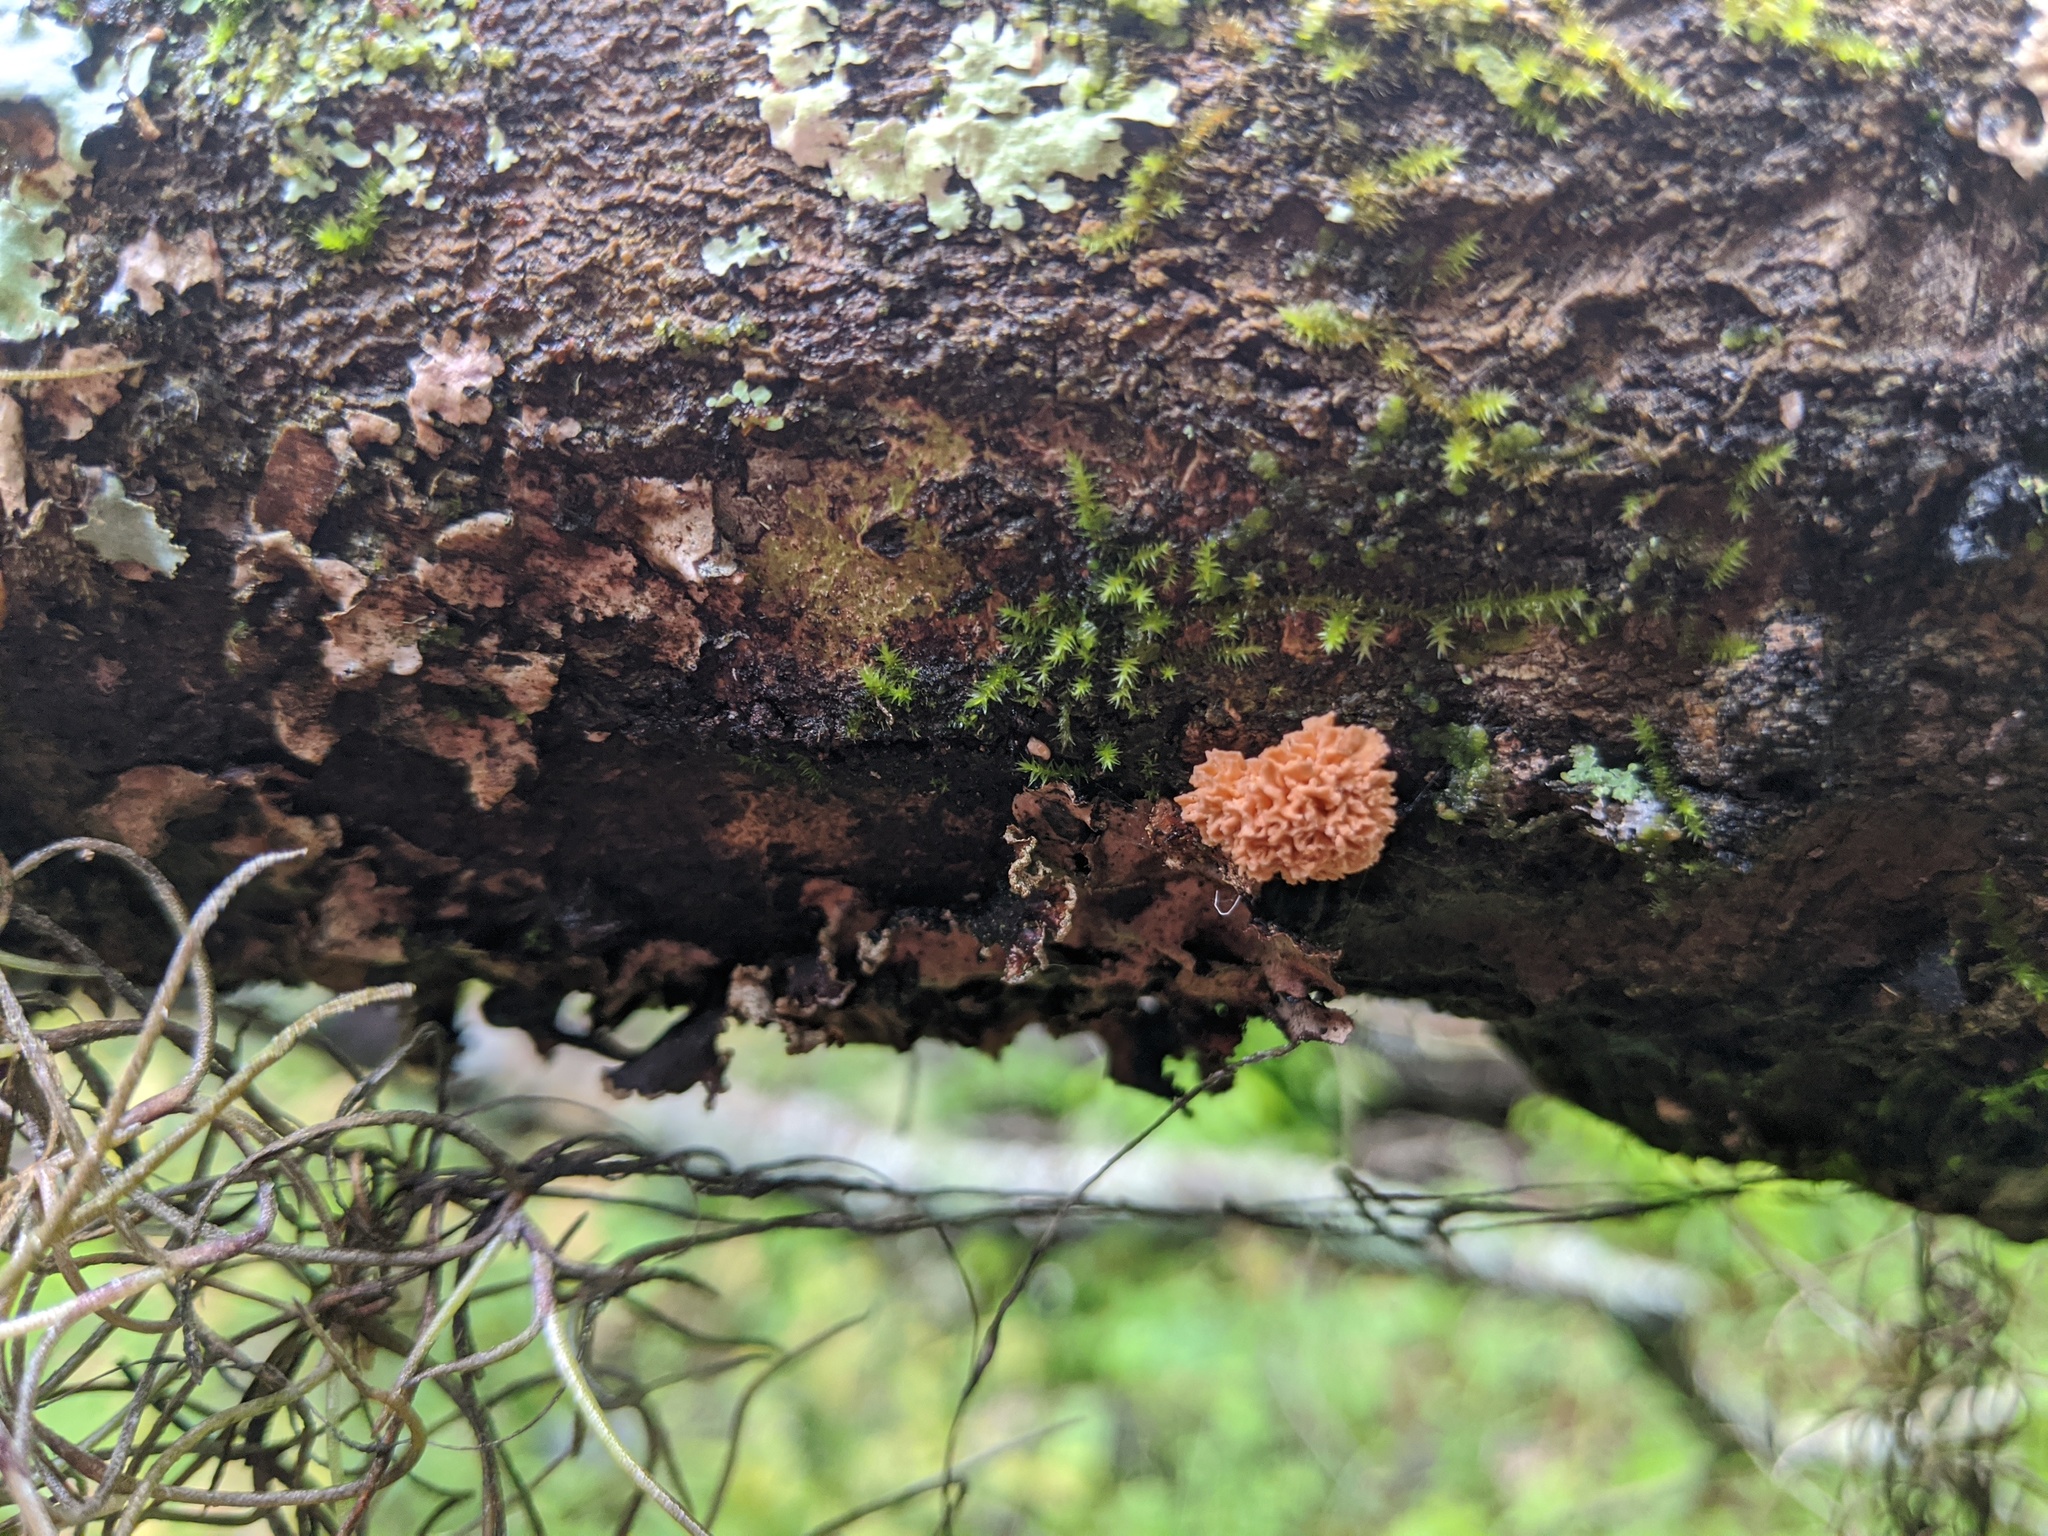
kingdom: Fungi
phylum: Ascomycota
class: Sordariomycetes
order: Xylariales
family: Xylariaceae
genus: Xylaria
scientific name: Xylaria cubensis
